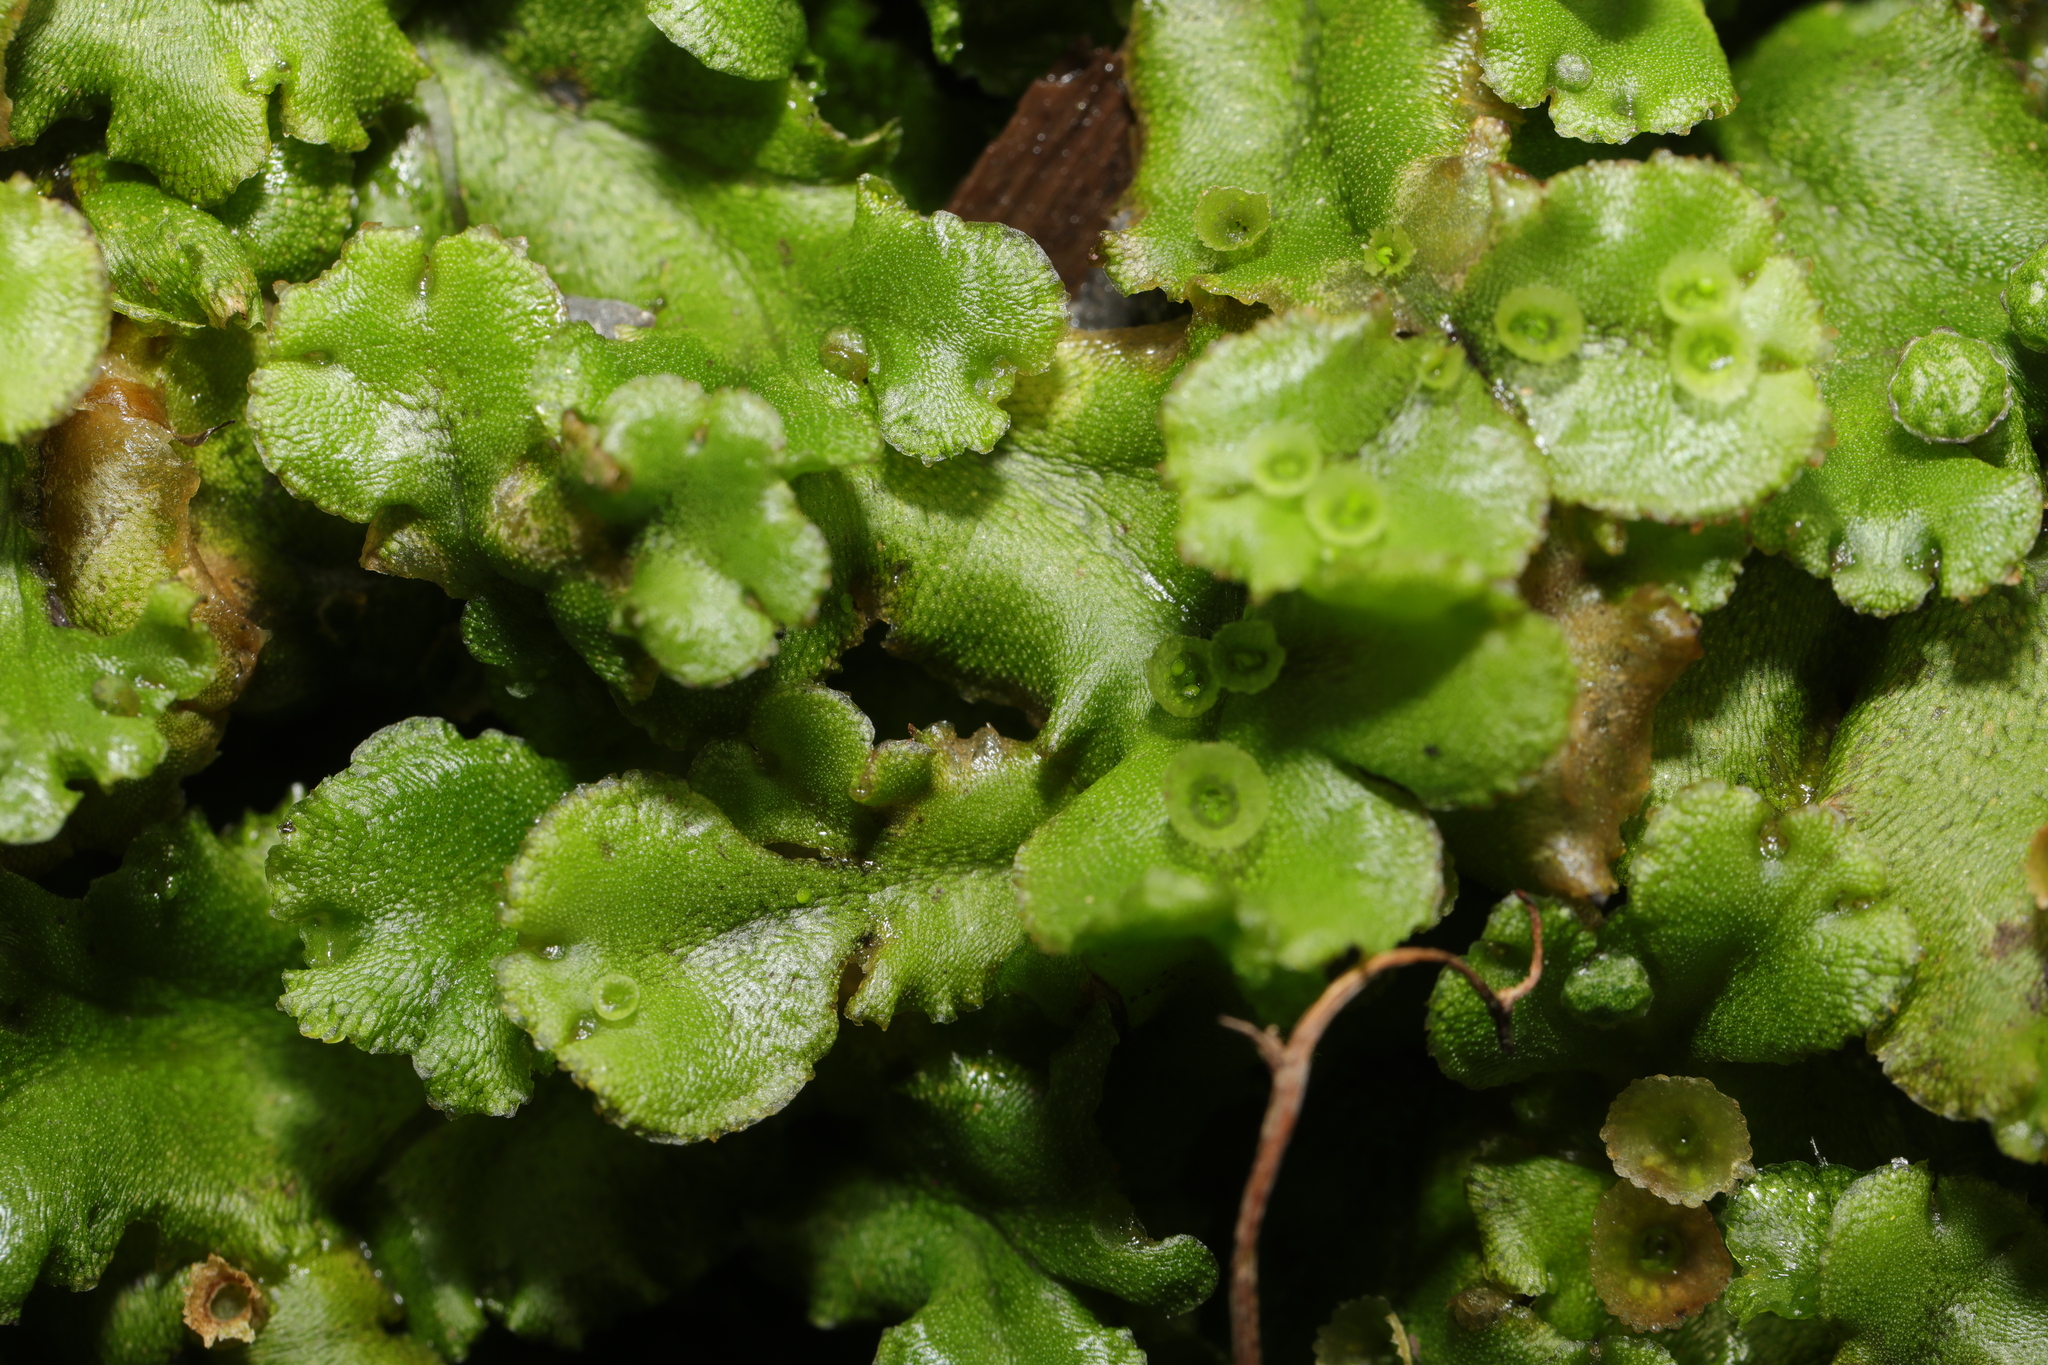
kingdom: Plantae
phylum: Marchantiophyta
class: Marchantiopsida
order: Marchantiales
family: Marchantiaceae
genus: Marchantia
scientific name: Marchantia polymorpha
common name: Common liverwort
